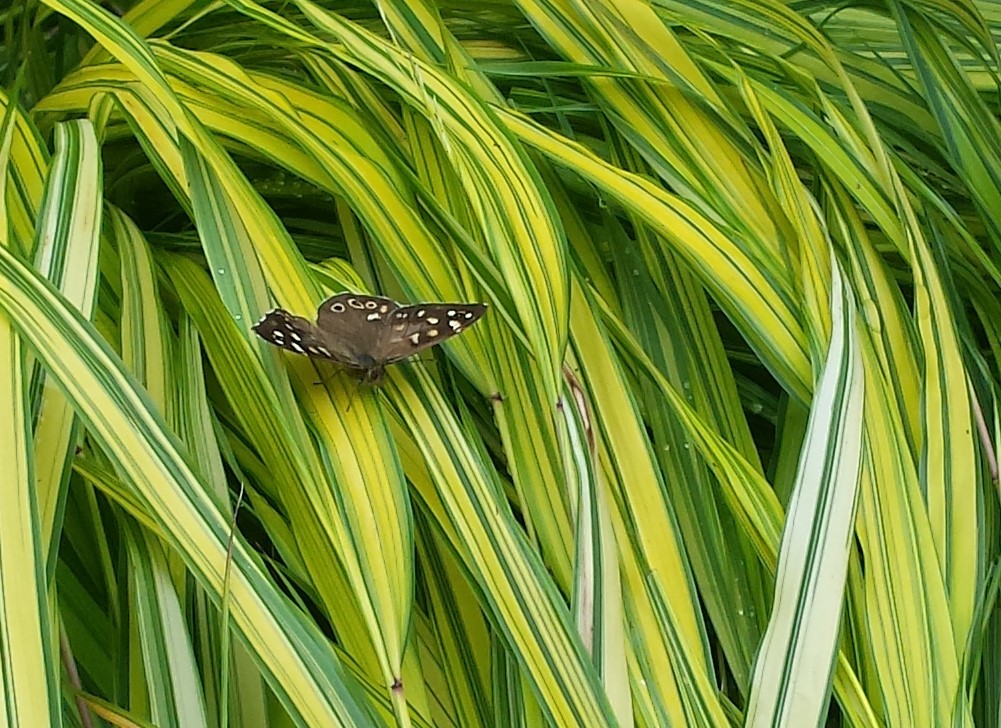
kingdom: Animalia
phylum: Arthropoda
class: Insecta
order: Lepidoptera
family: Nymphalidae
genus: Pararge
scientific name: Pararge aegeria
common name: Speckled wood
